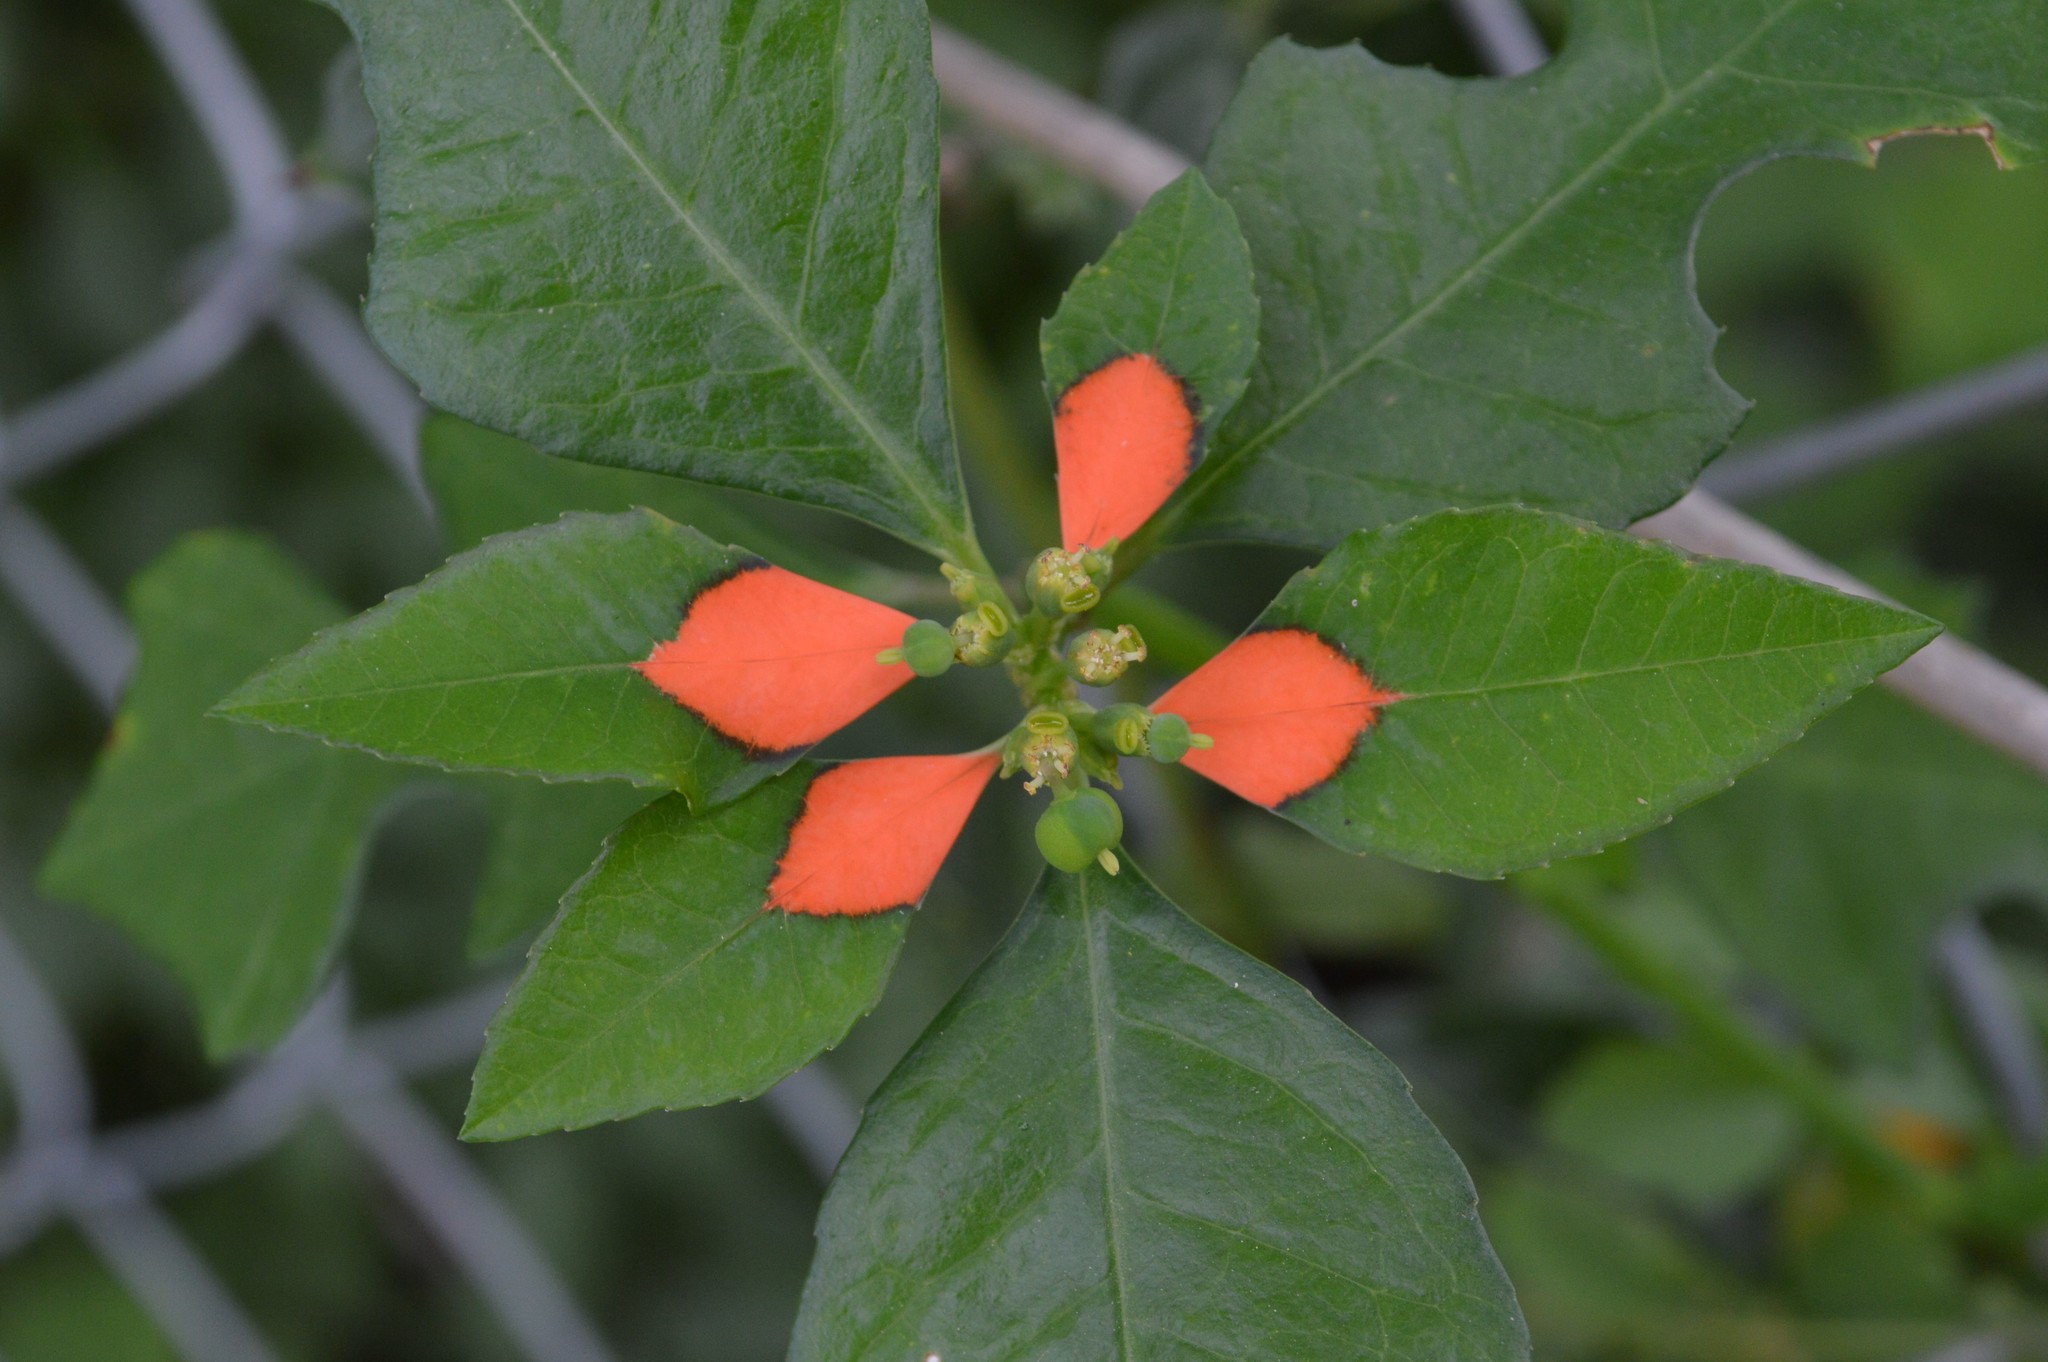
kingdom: Plantae
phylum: Tracheophyta
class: Magnoliopsida
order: Malpighiales
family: Euphorbiaceae
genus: Euphorbia
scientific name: Euphorbia heterophylla
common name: Mexican fireplant
